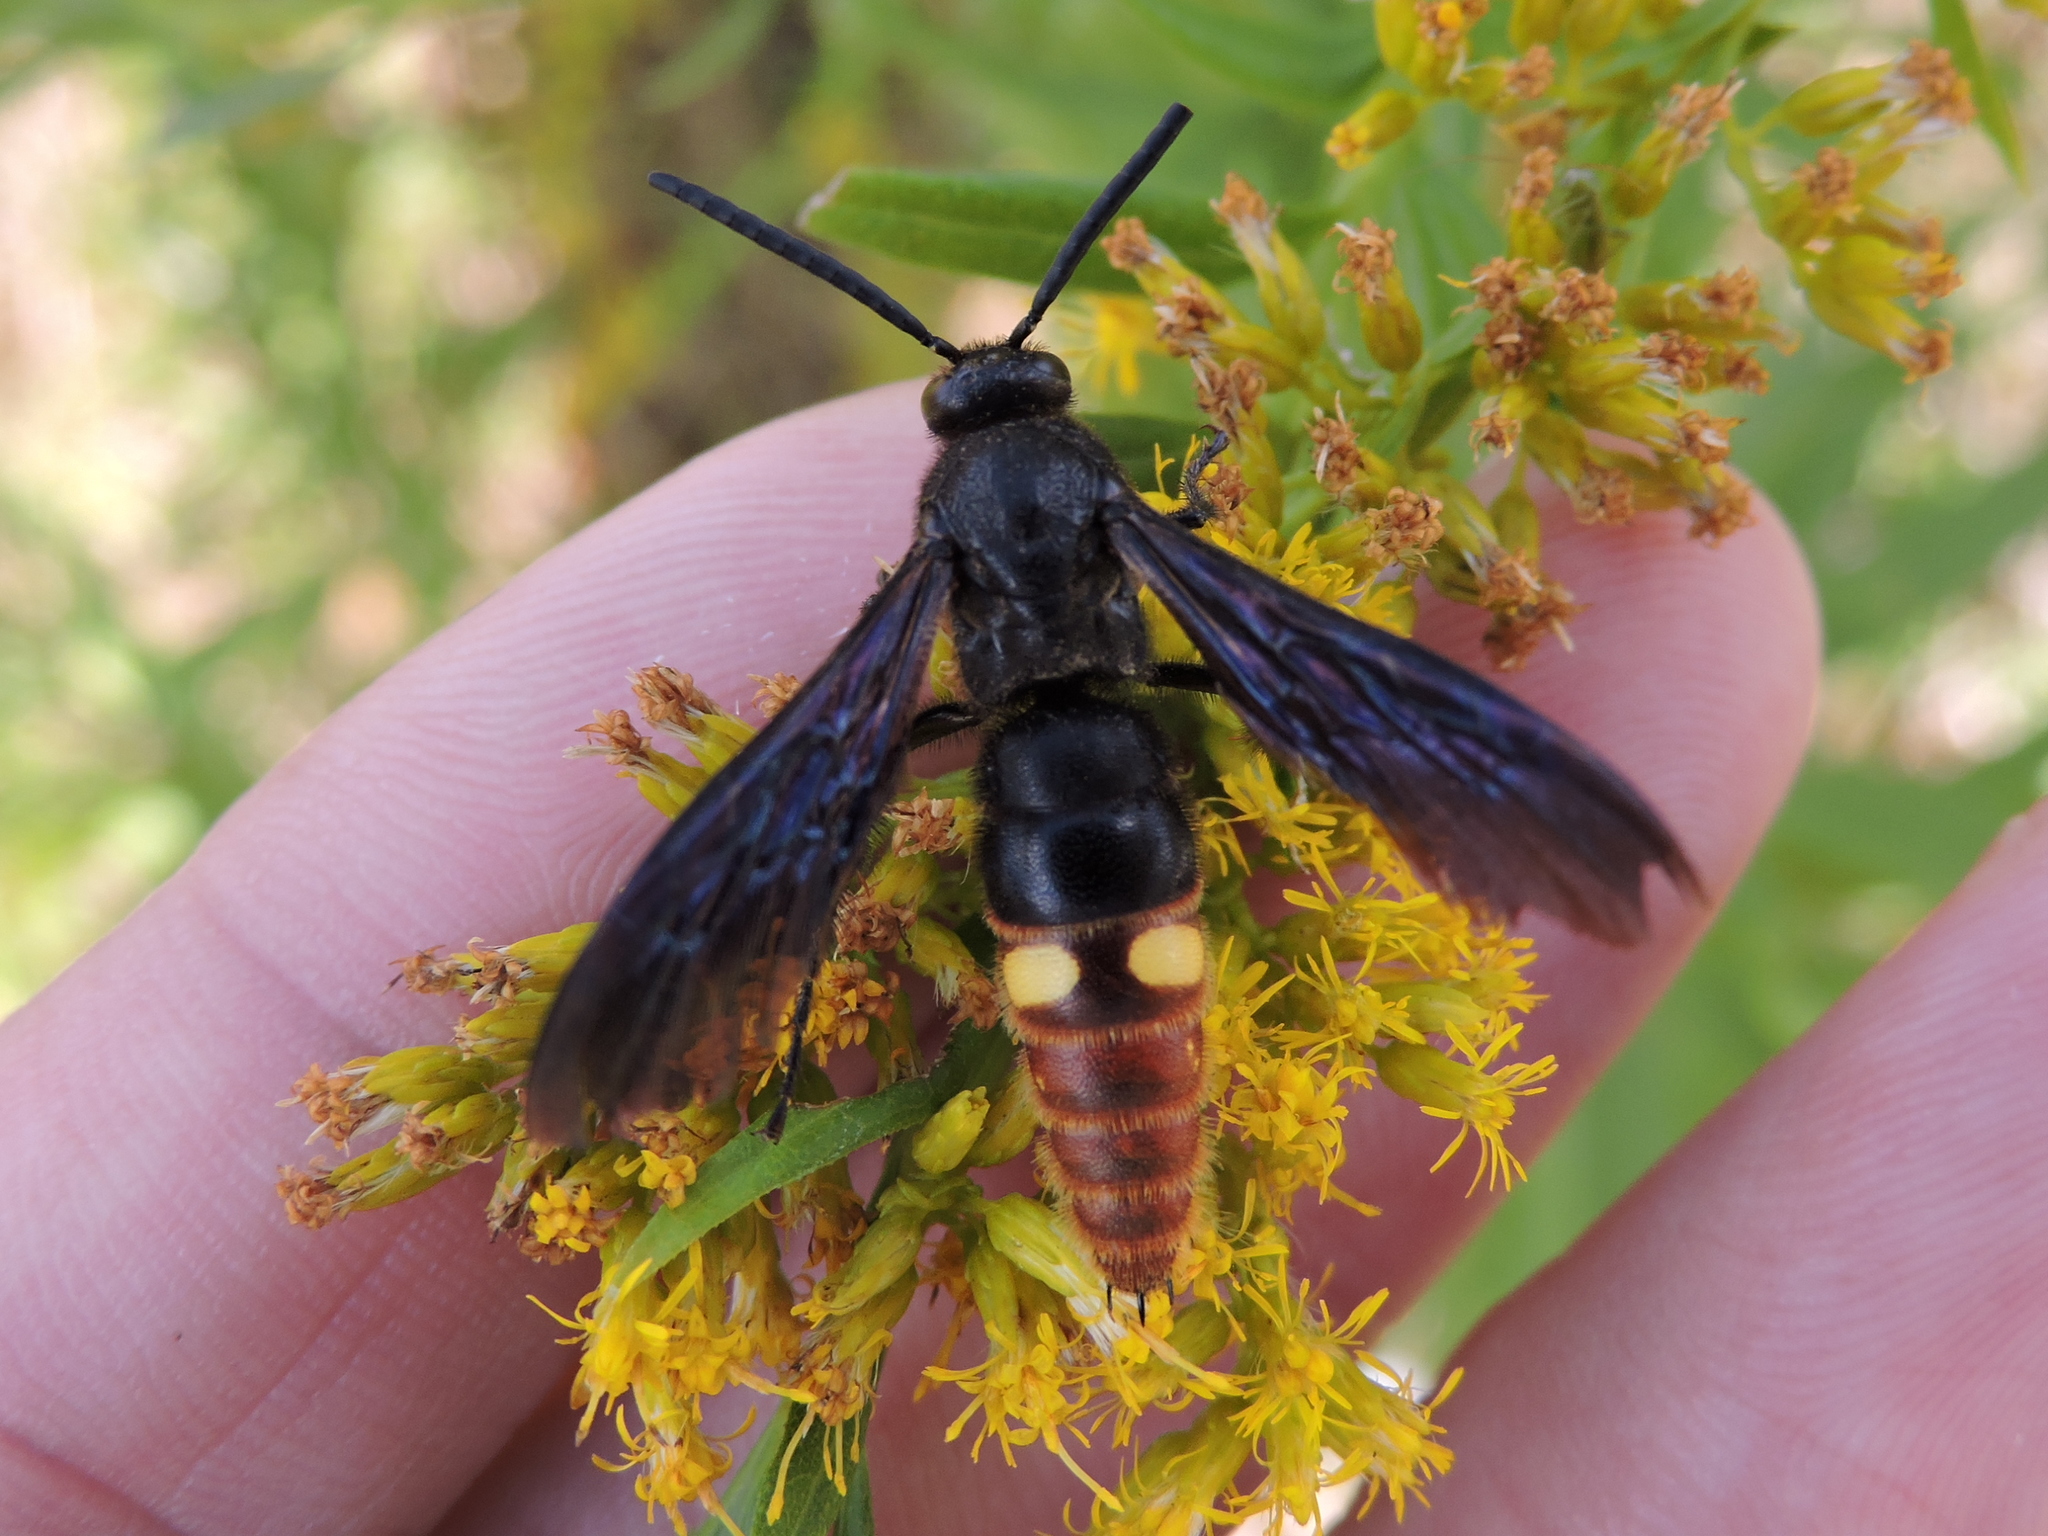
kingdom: Animalia
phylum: Arthropoda
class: Insecta
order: Hymenoptera
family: Scoliidae
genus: Scolia
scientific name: Scolia dubia
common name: Blue-winged scoliid wasp
